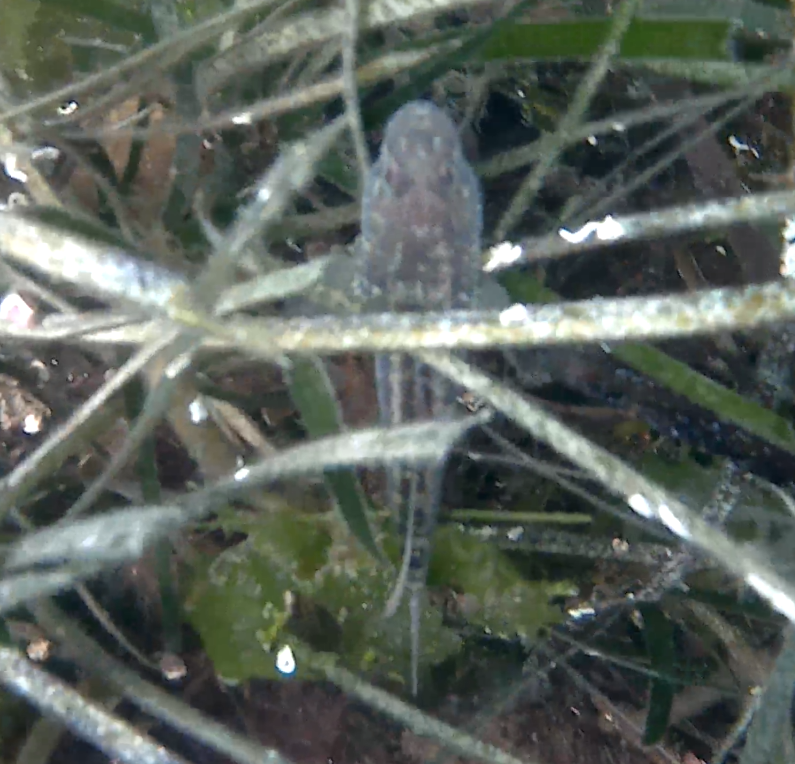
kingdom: Animalia
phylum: Chordata
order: Perciformes
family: Gobiidae
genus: Zosterisessor
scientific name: Zosterisessor ophiocephalus
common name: Grass goby
